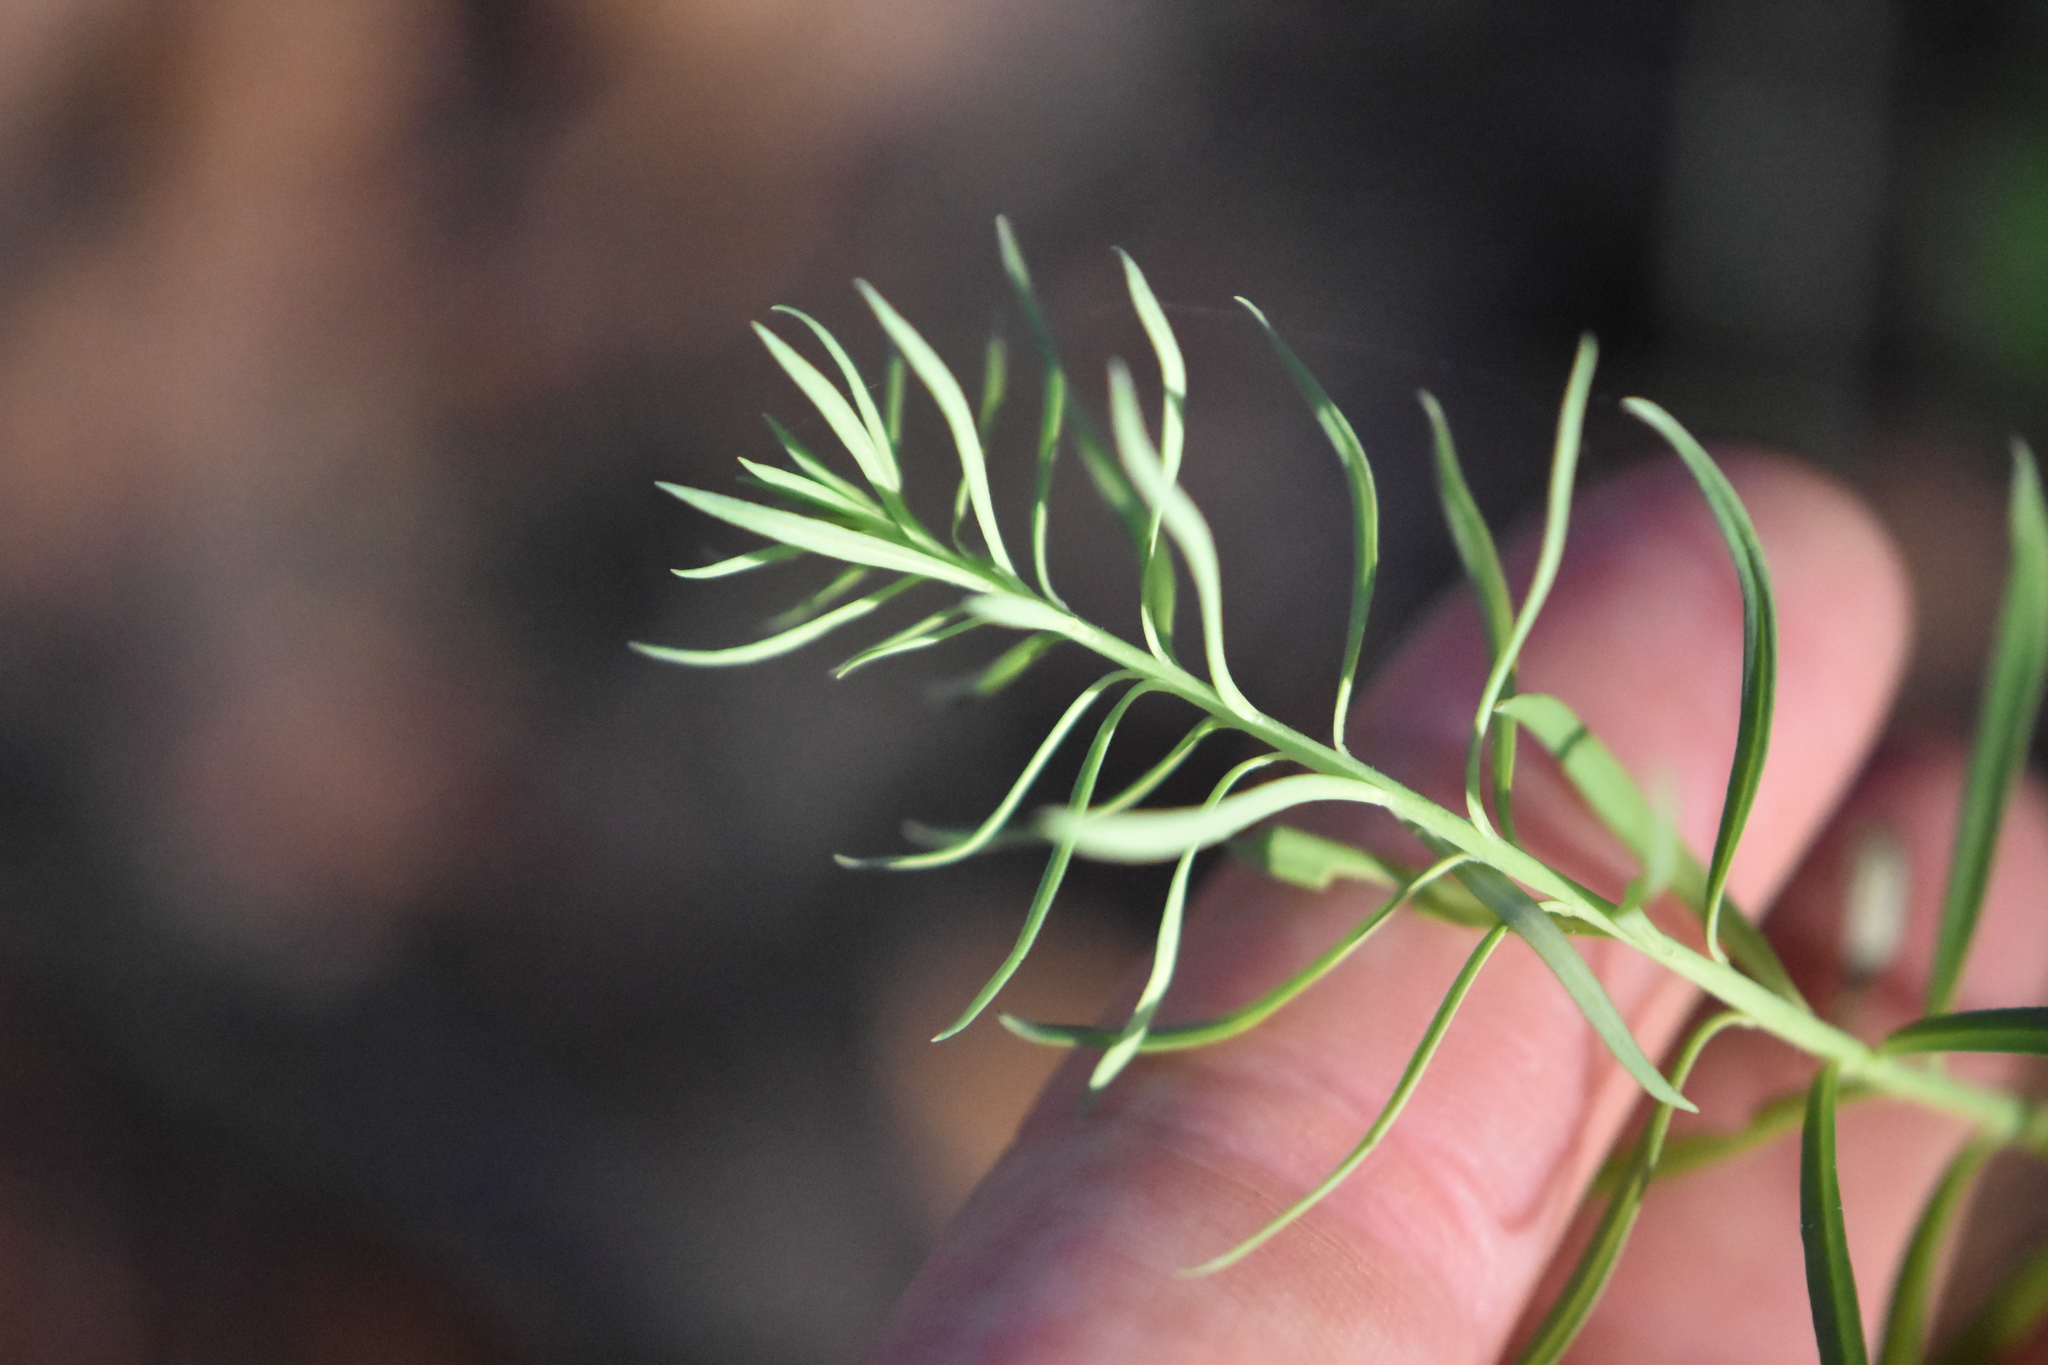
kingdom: Plantae
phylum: Tracheophyta
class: Magnoliopsida
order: Lamiales
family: Plantaginaceae
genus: Linaria
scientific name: Linaria vulgaris
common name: Butter and eggs
